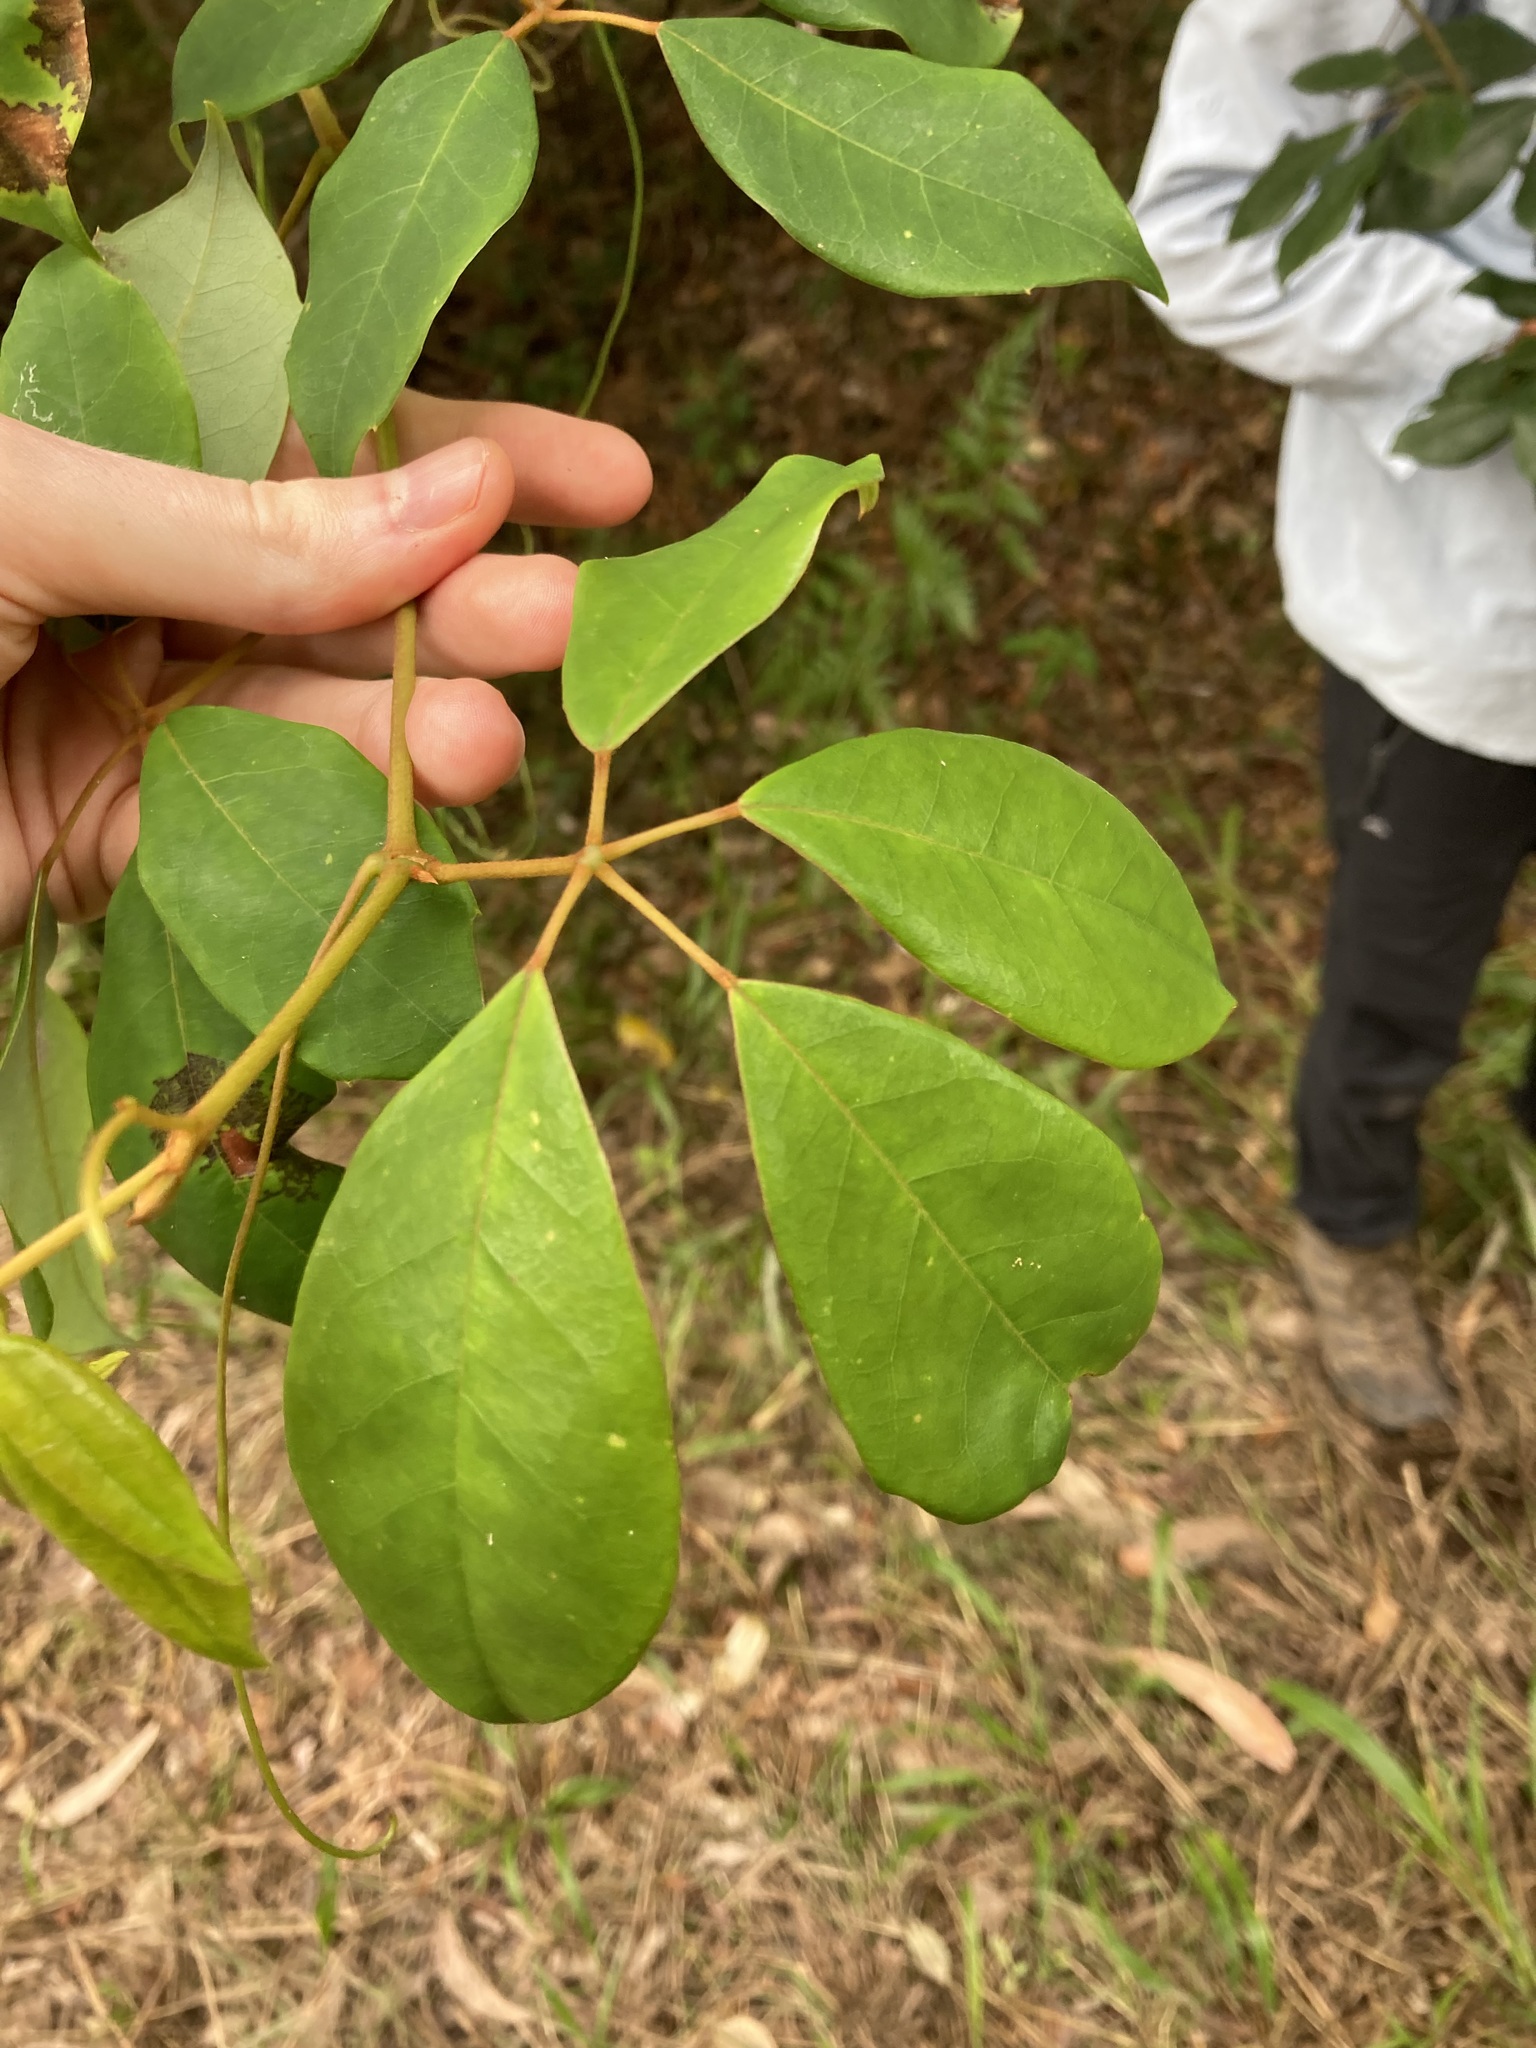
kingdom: Plantae
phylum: Tracheophyta
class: Magnoliopsida
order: Vitales
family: Vitaceae
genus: Nothocissus
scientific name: Nothocissus hypoglauca
